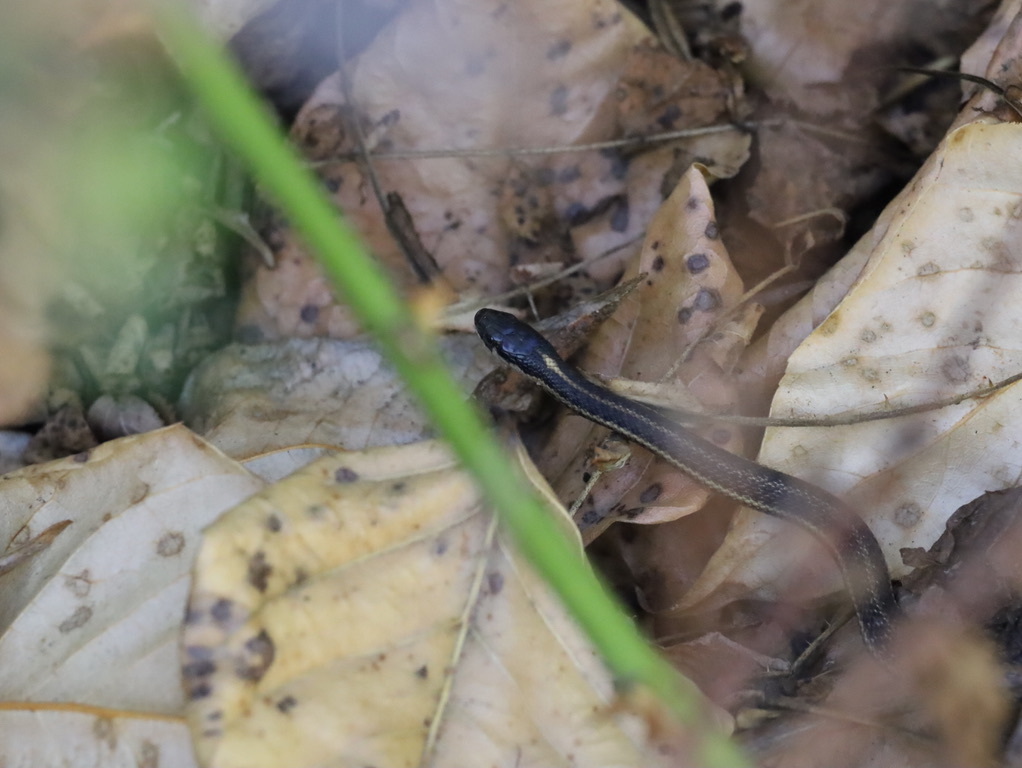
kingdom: Animalia
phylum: Chordata
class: Squamata
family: Colubridae
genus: Thamnophis
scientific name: Thamnophis ordinoides
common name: Northwestern garter snake
